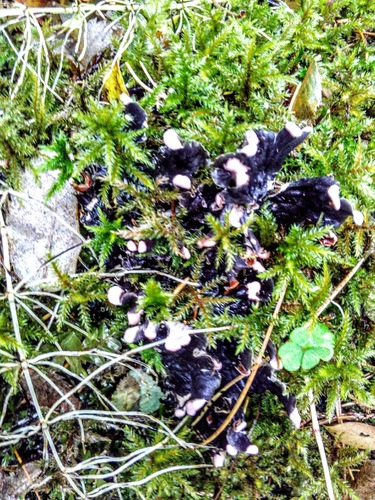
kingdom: Fungi
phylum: Ascomycota
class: Lecanoromycetes
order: Peltigerales
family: Peltigeraceae
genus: Peltigera
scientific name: Peltigera
